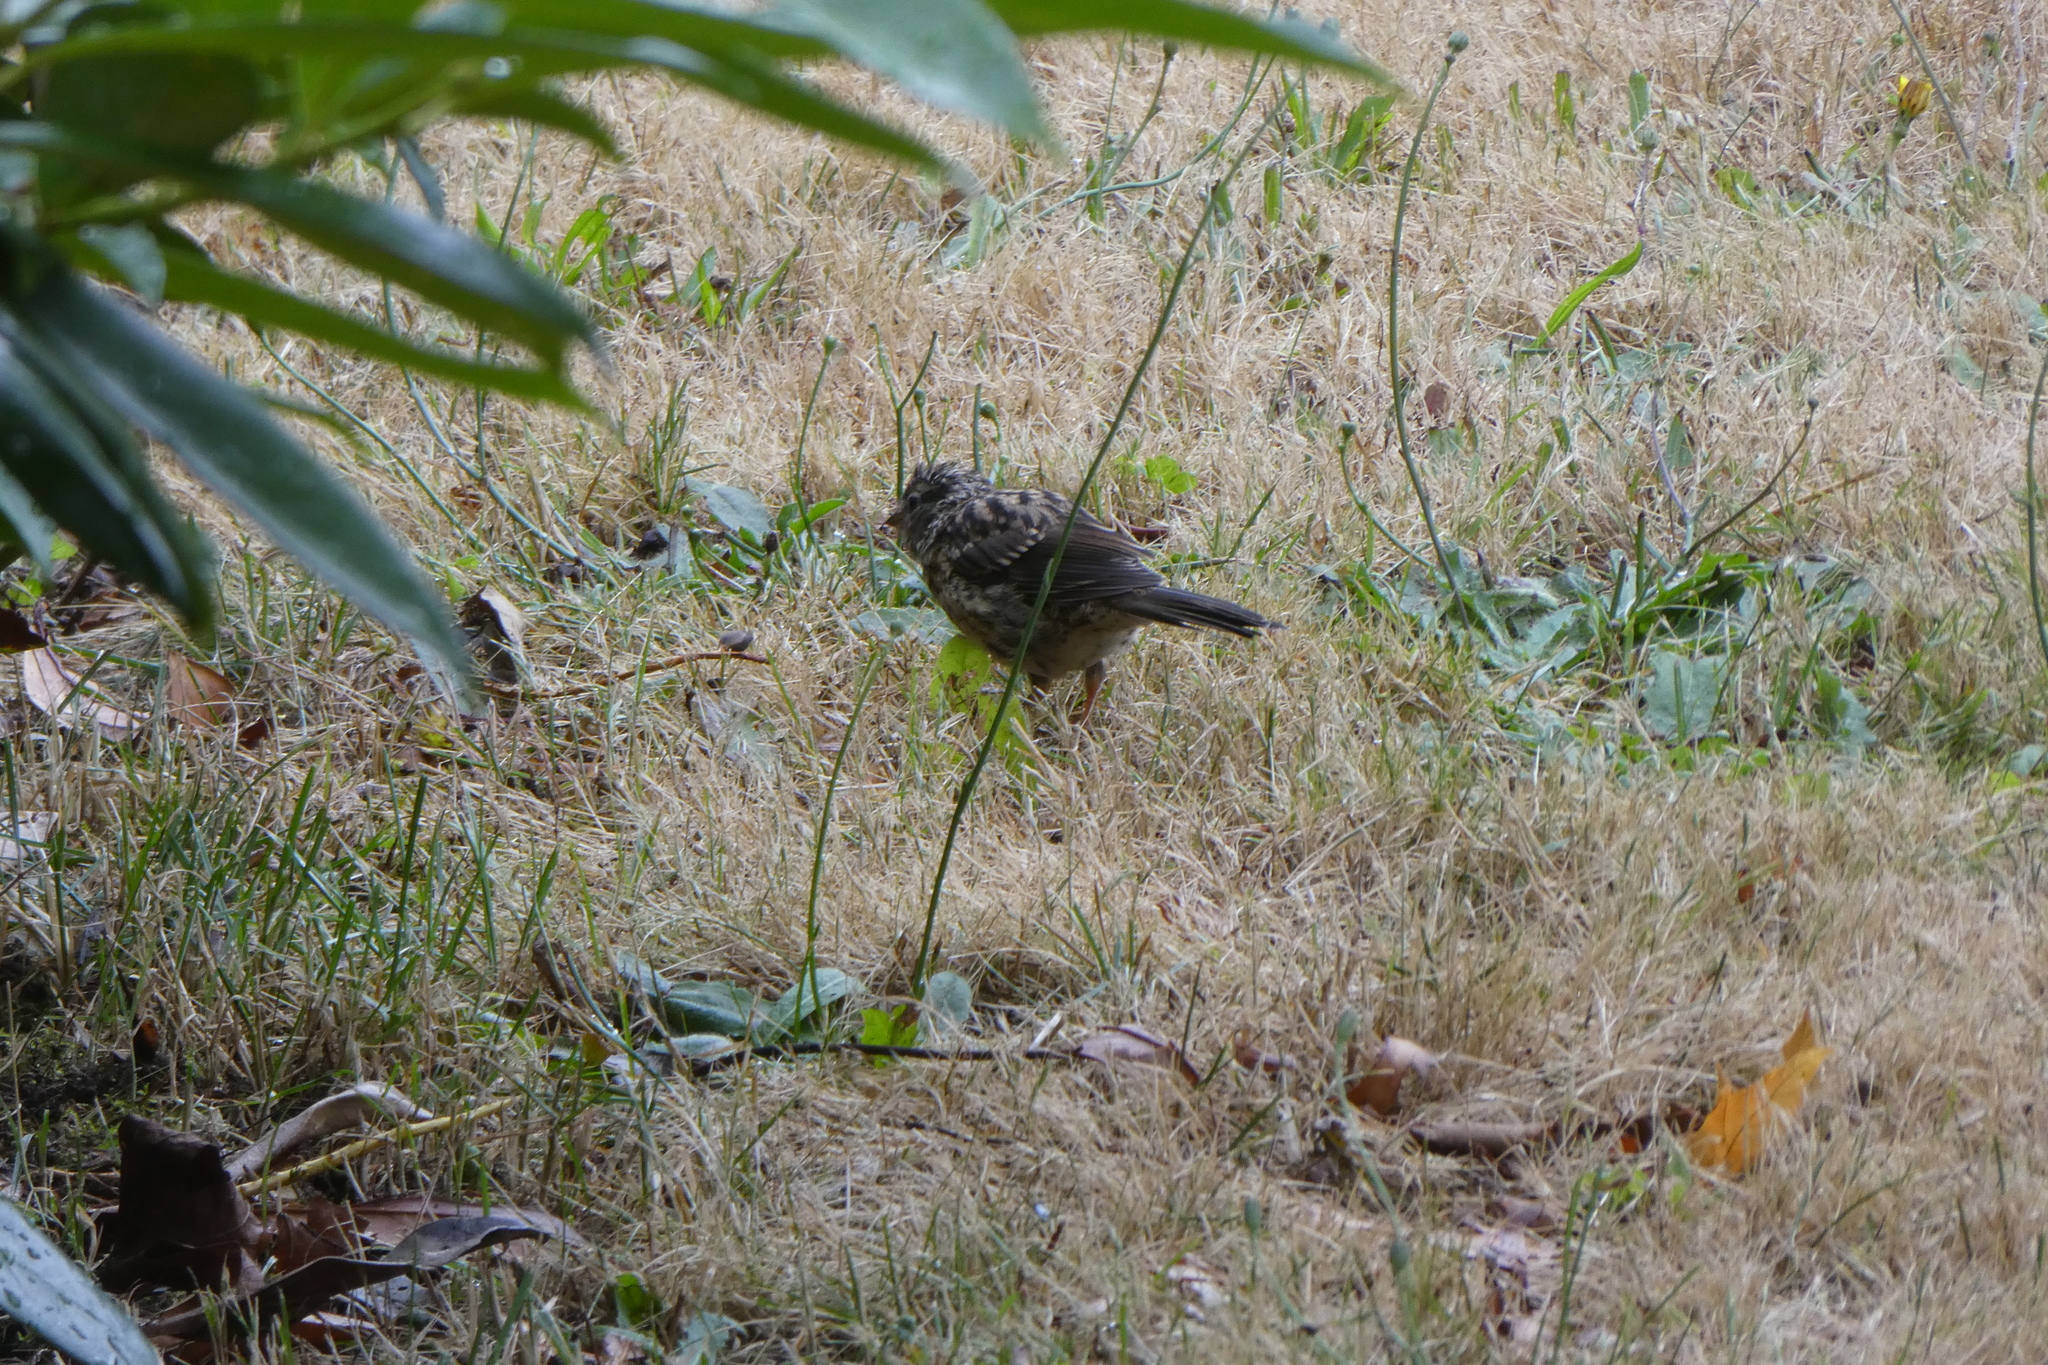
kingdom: Animalia
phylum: Chordata
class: Aves
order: Passeriformes
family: Passerellidae
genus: Zonotrichia
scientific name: Zonotrichia leucophrys
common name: White-crowned sparrow
